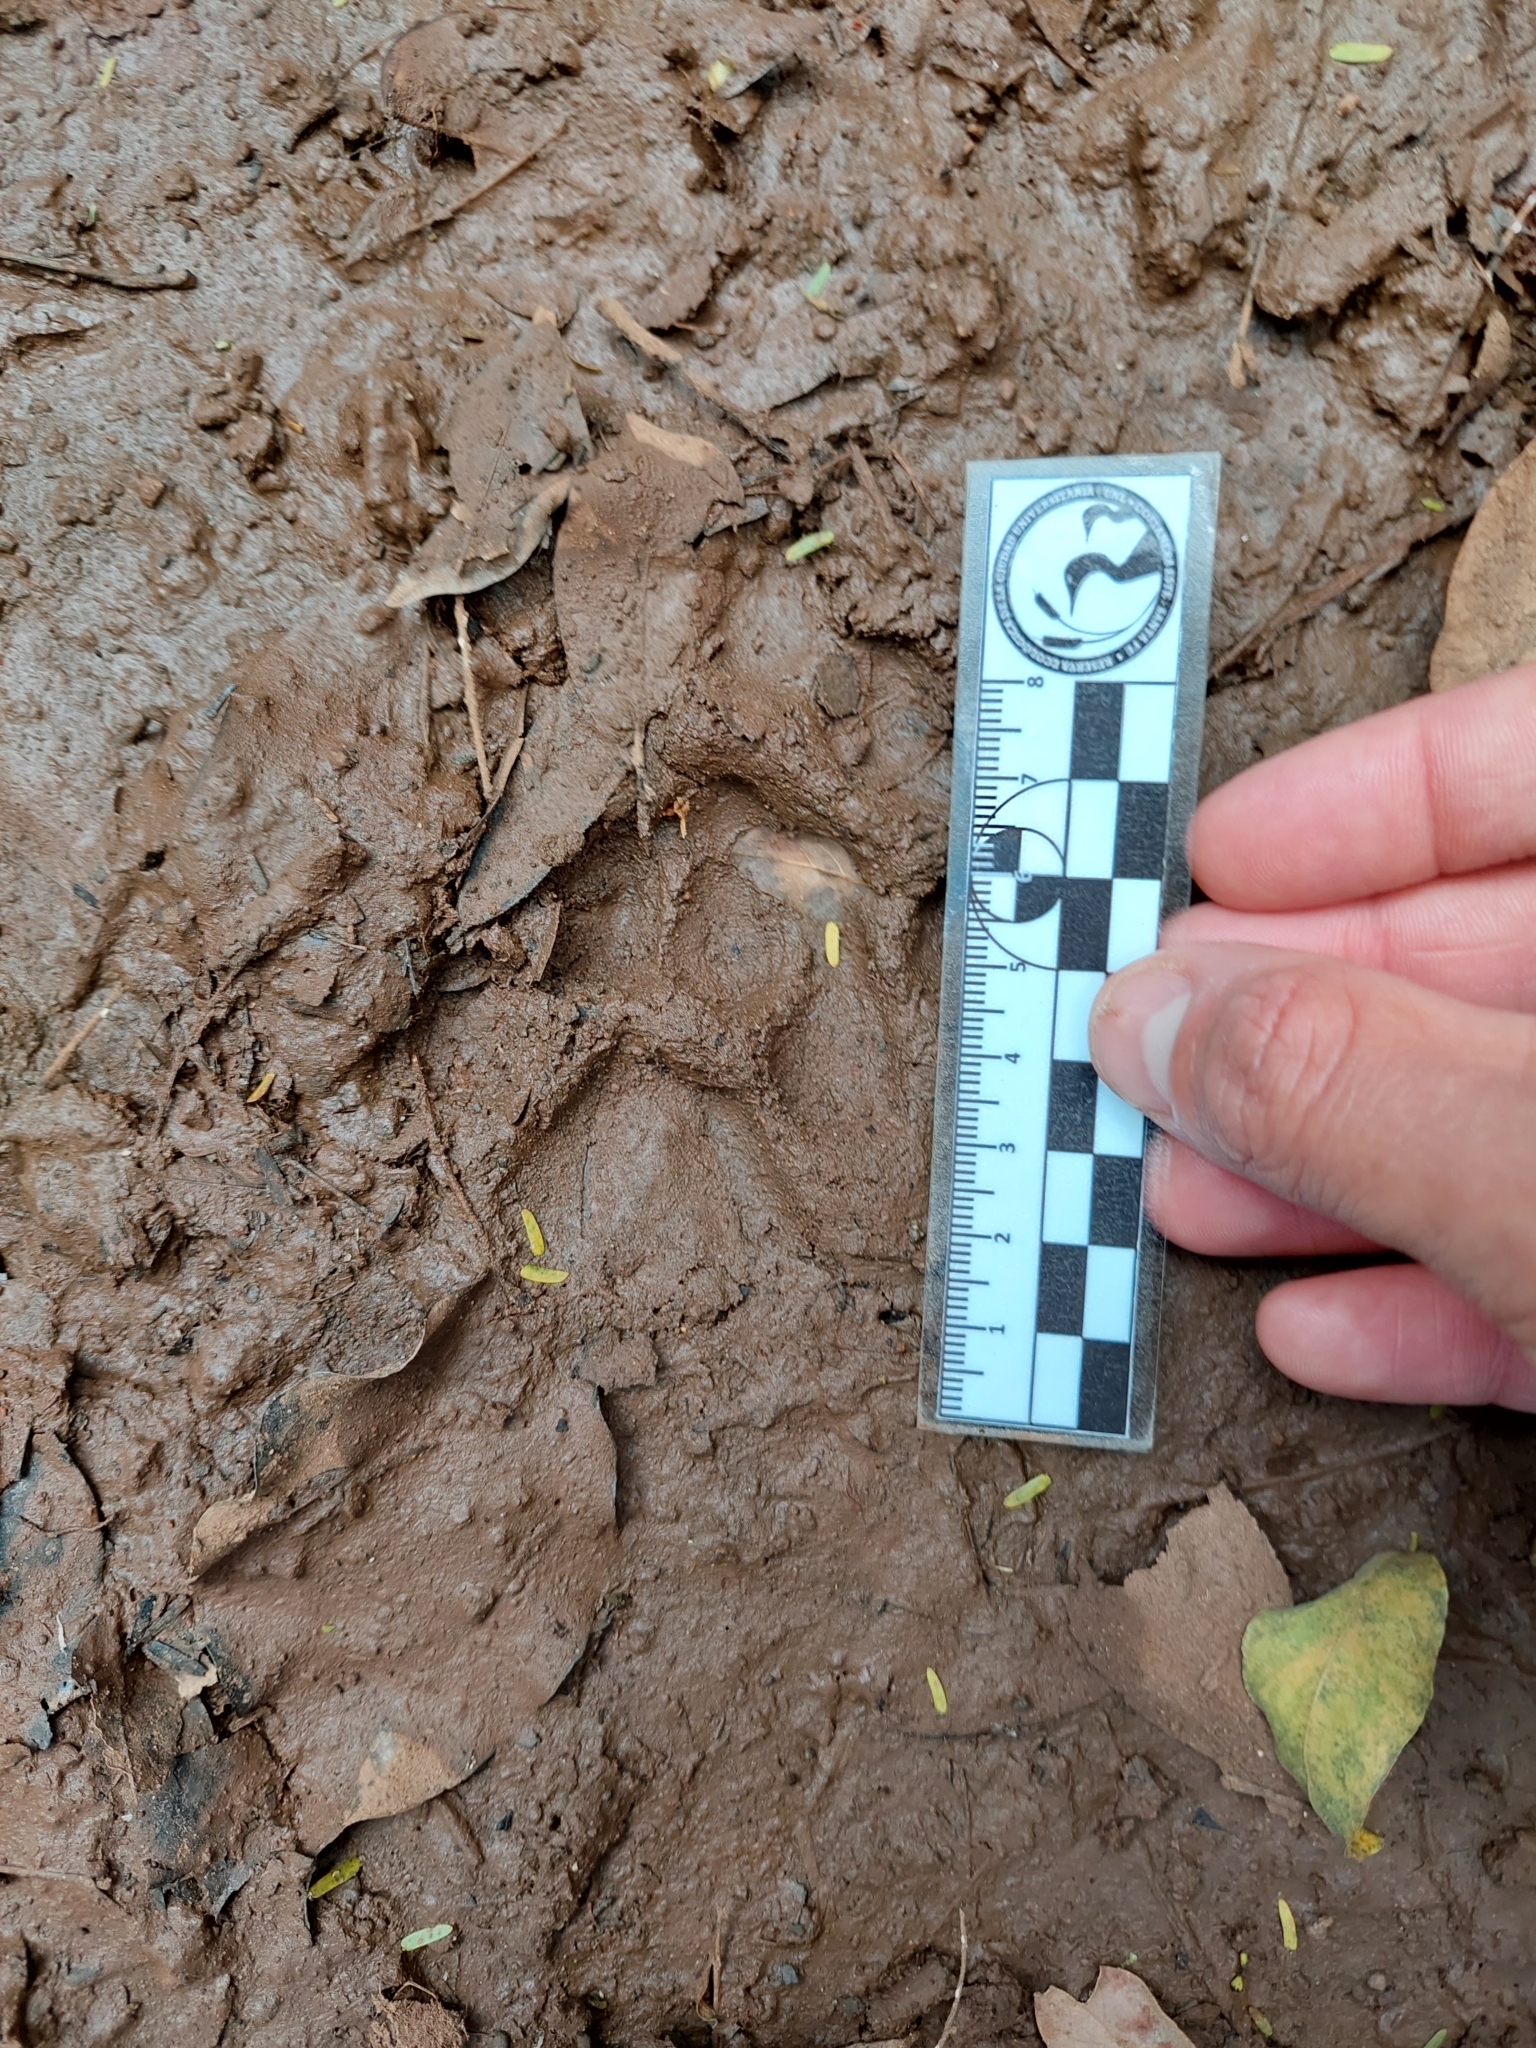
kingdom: Animalia
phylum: Chordata
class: Mammalia
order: Carnivora
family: Felidae
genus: Puma
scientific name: Puma concolor
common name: Puma
